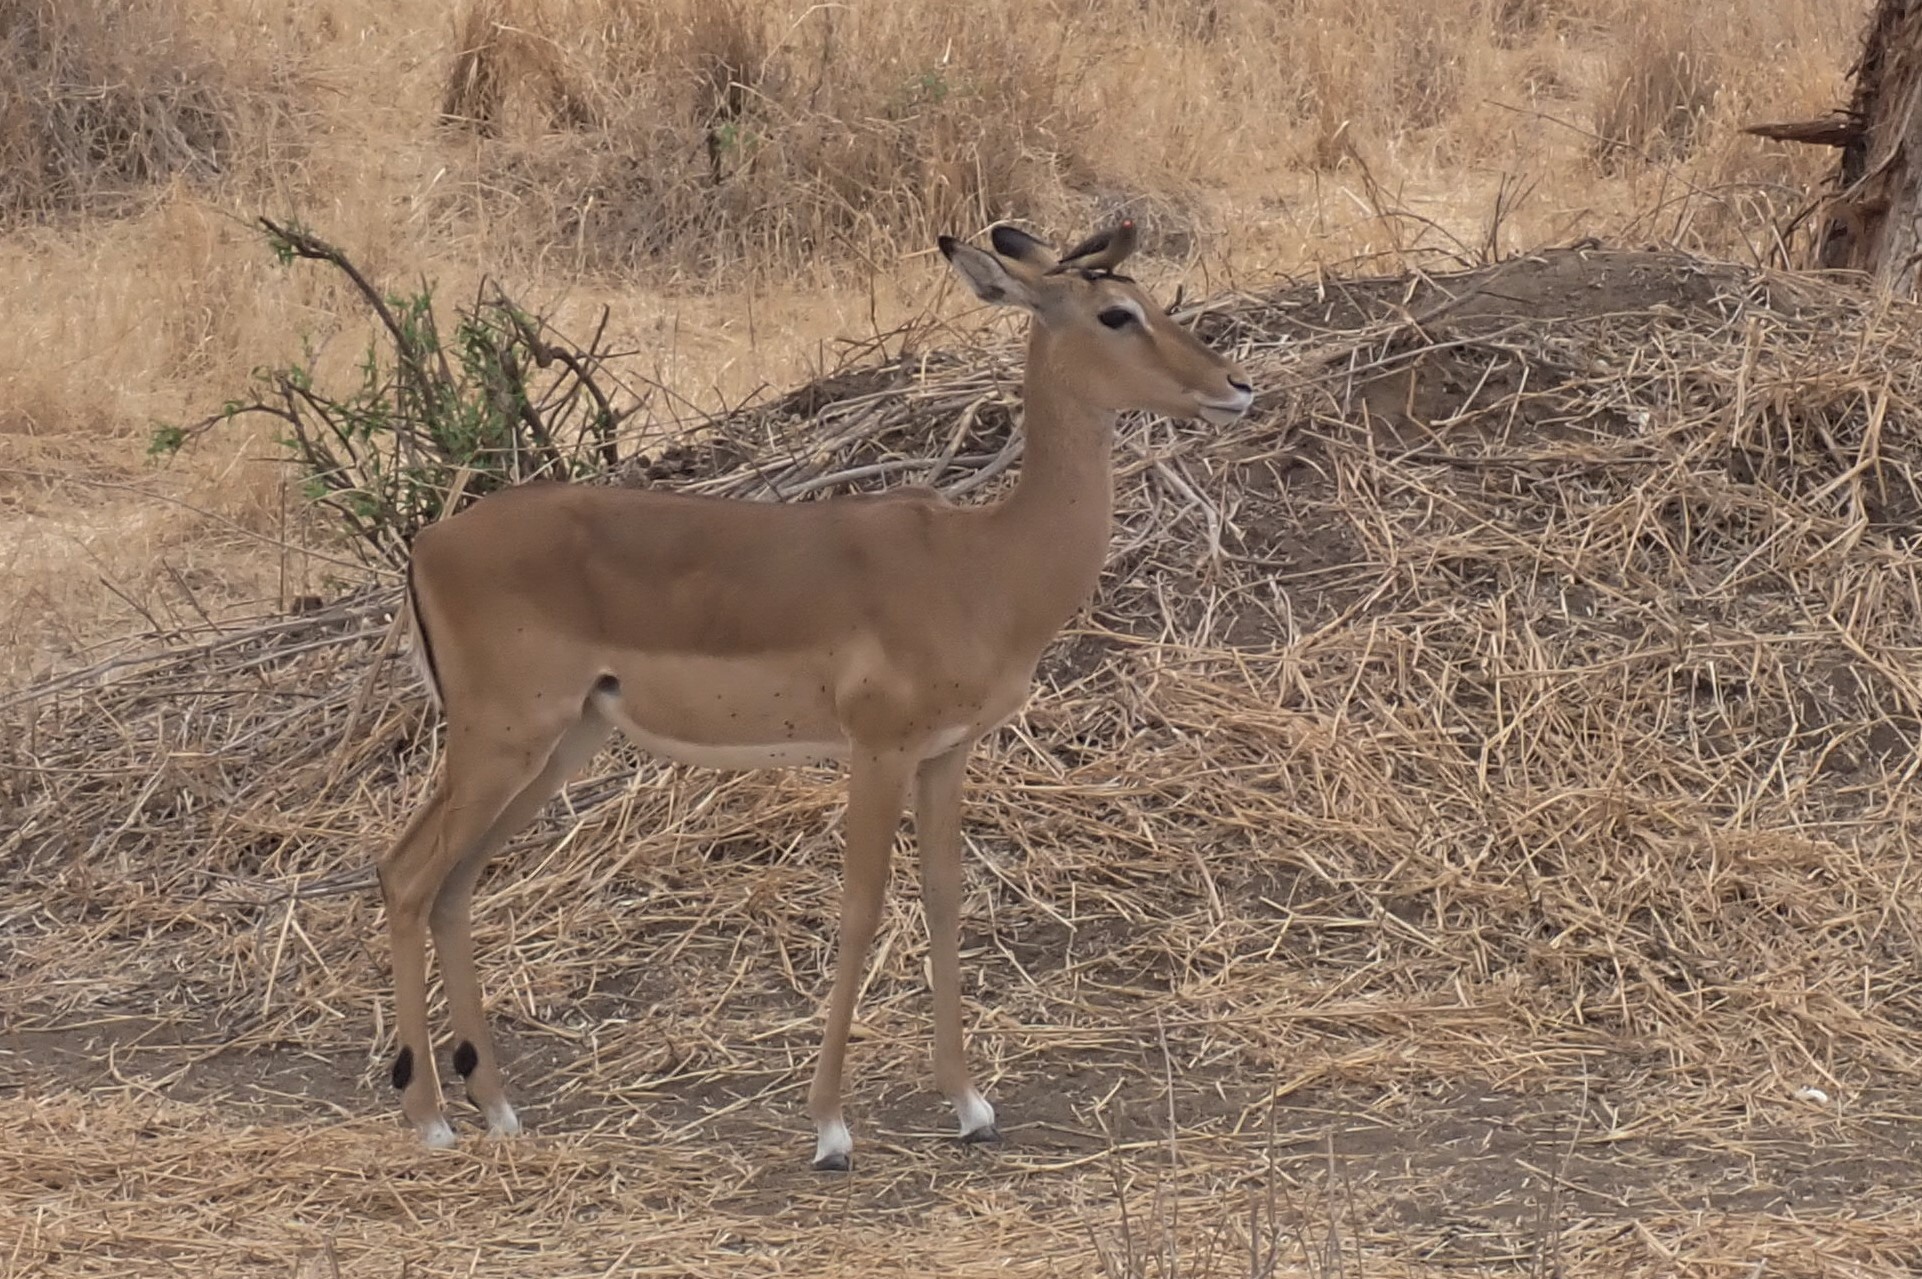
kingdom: Animalia
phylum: Chordata
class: Mammalia
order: Artiodactyla
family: Bovidae
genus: Aepyceros
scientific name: Aepyceros melampus
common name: Impala
